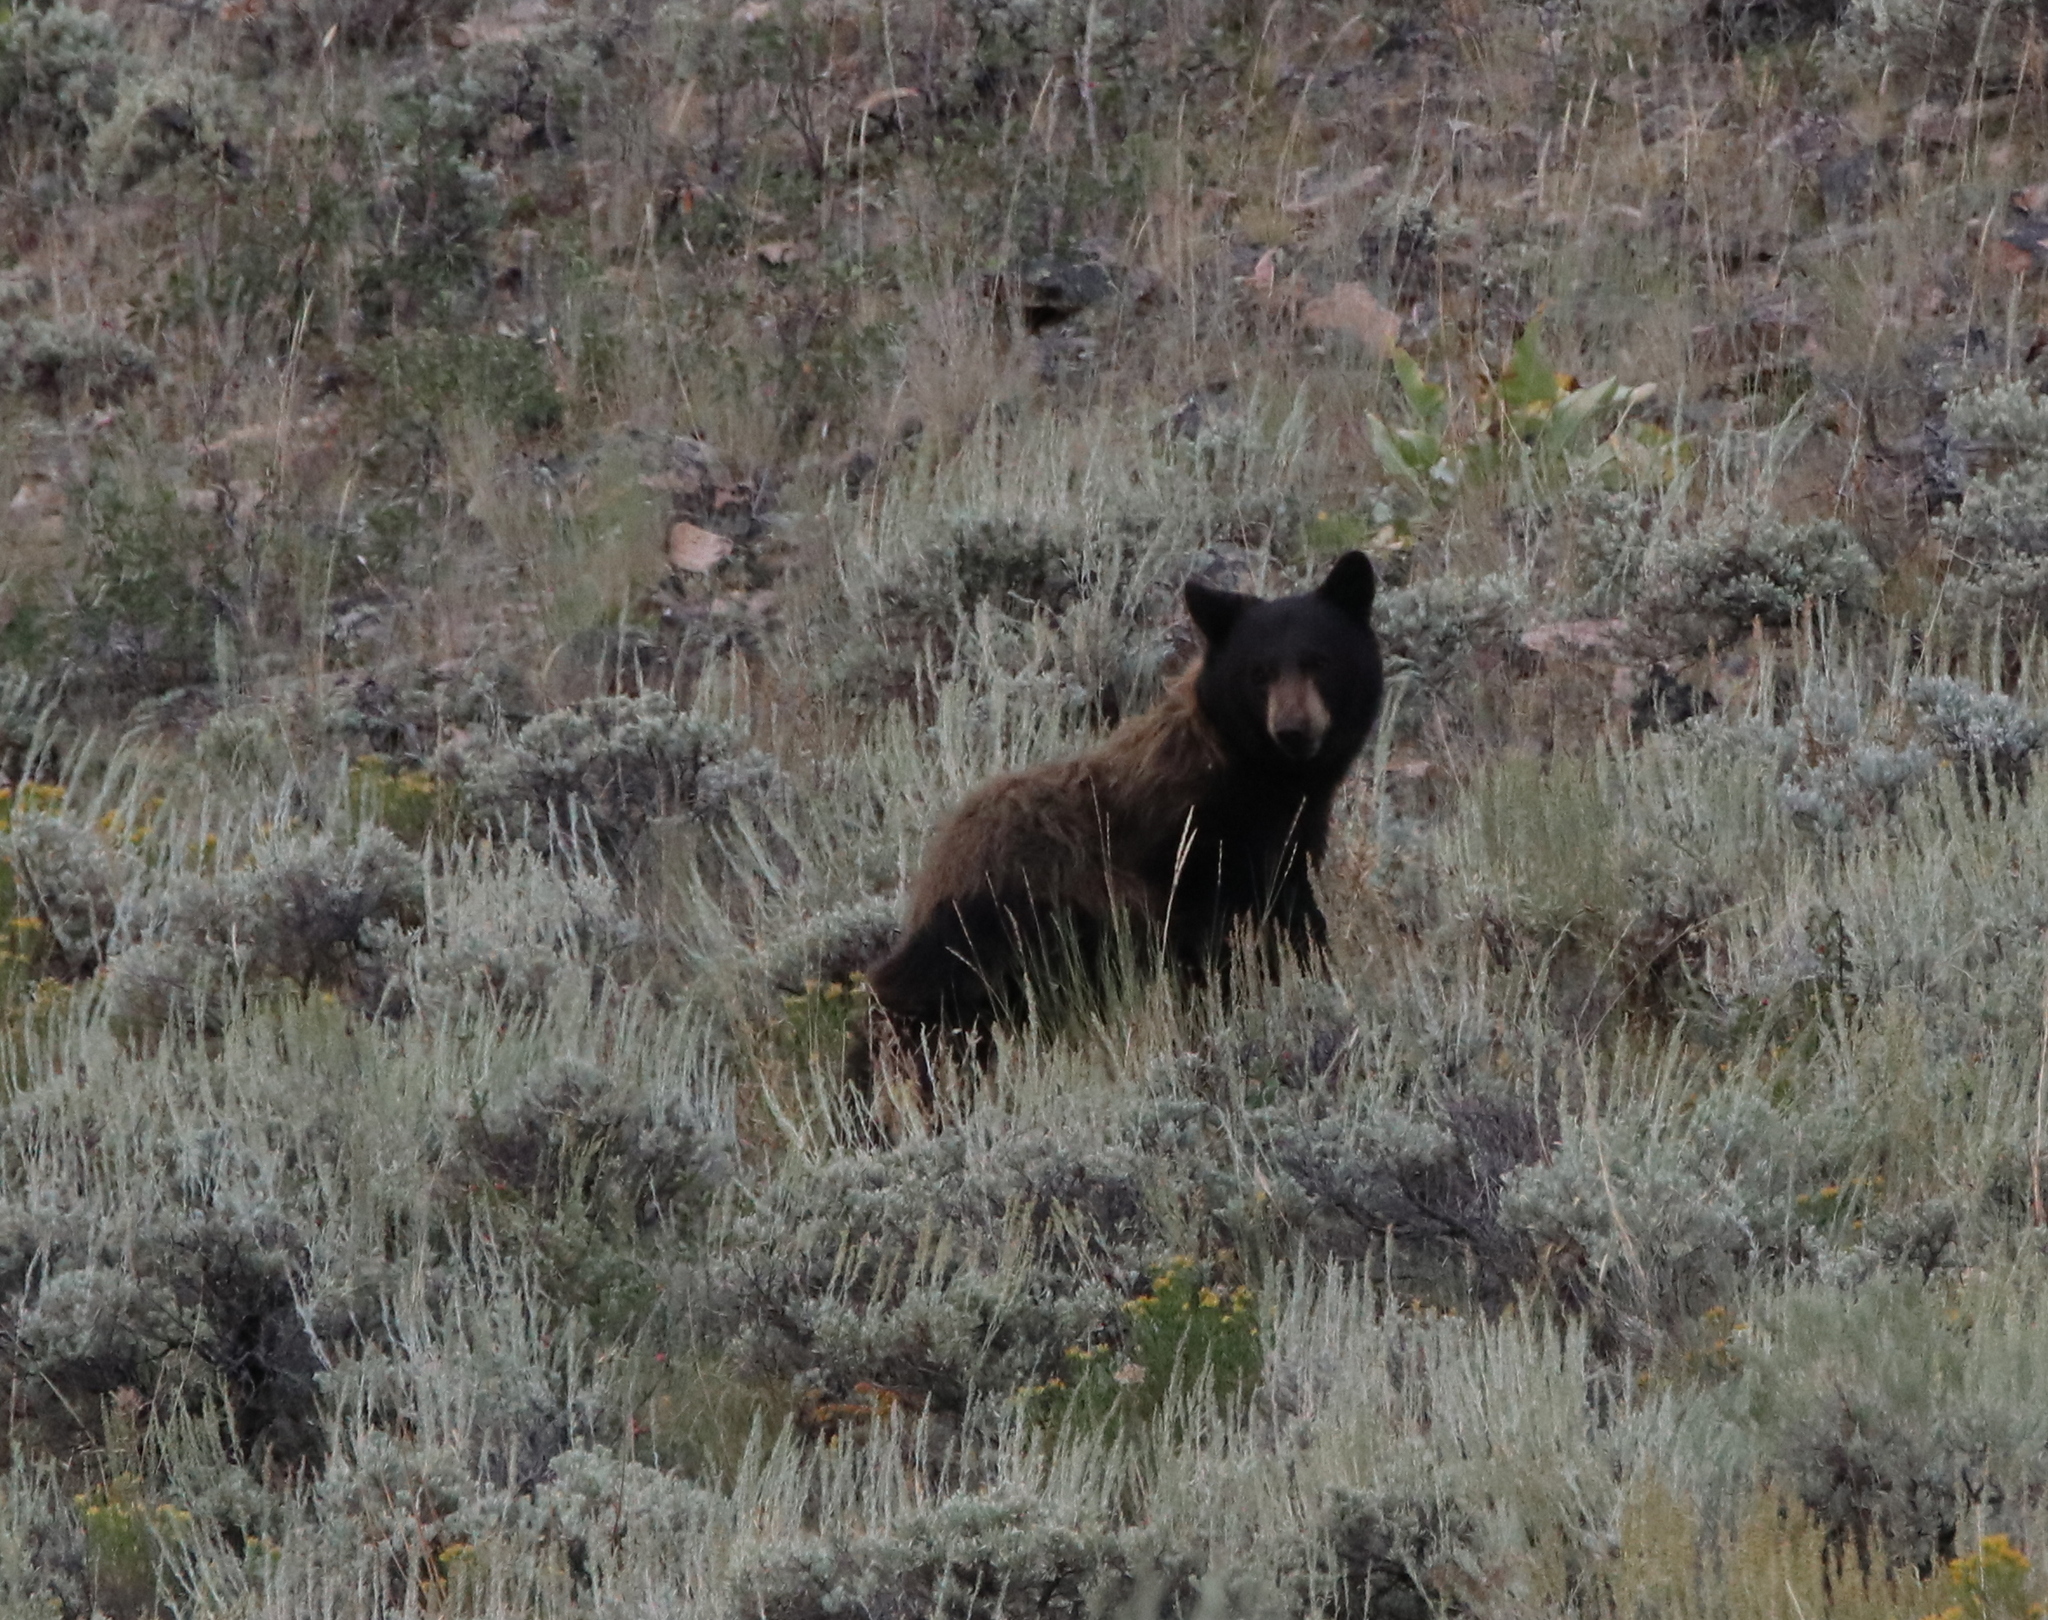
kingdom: Animalia
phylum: Chordata
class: Mammalia
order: Carnivora
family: Ursidae
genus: Ursus
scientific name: Ursus americanus
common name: American black bear
